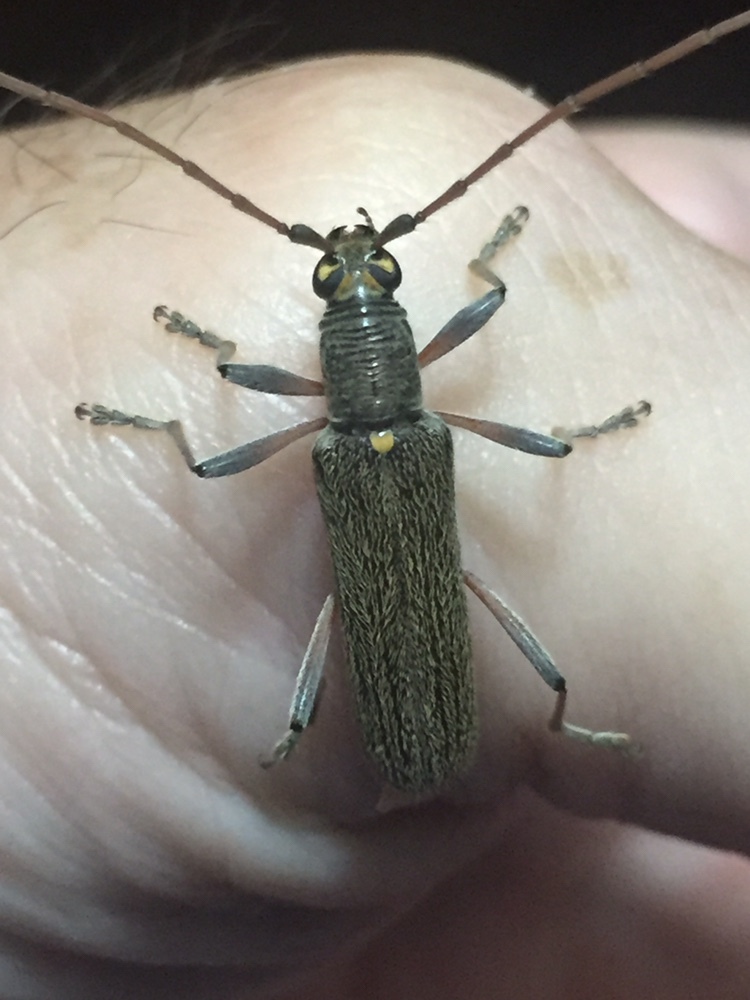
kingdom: Animalia
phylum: Arthropoda
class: Insecta
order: Coleoptera
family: Cerambycidae
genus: Oemona
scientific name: Oemona hirta
